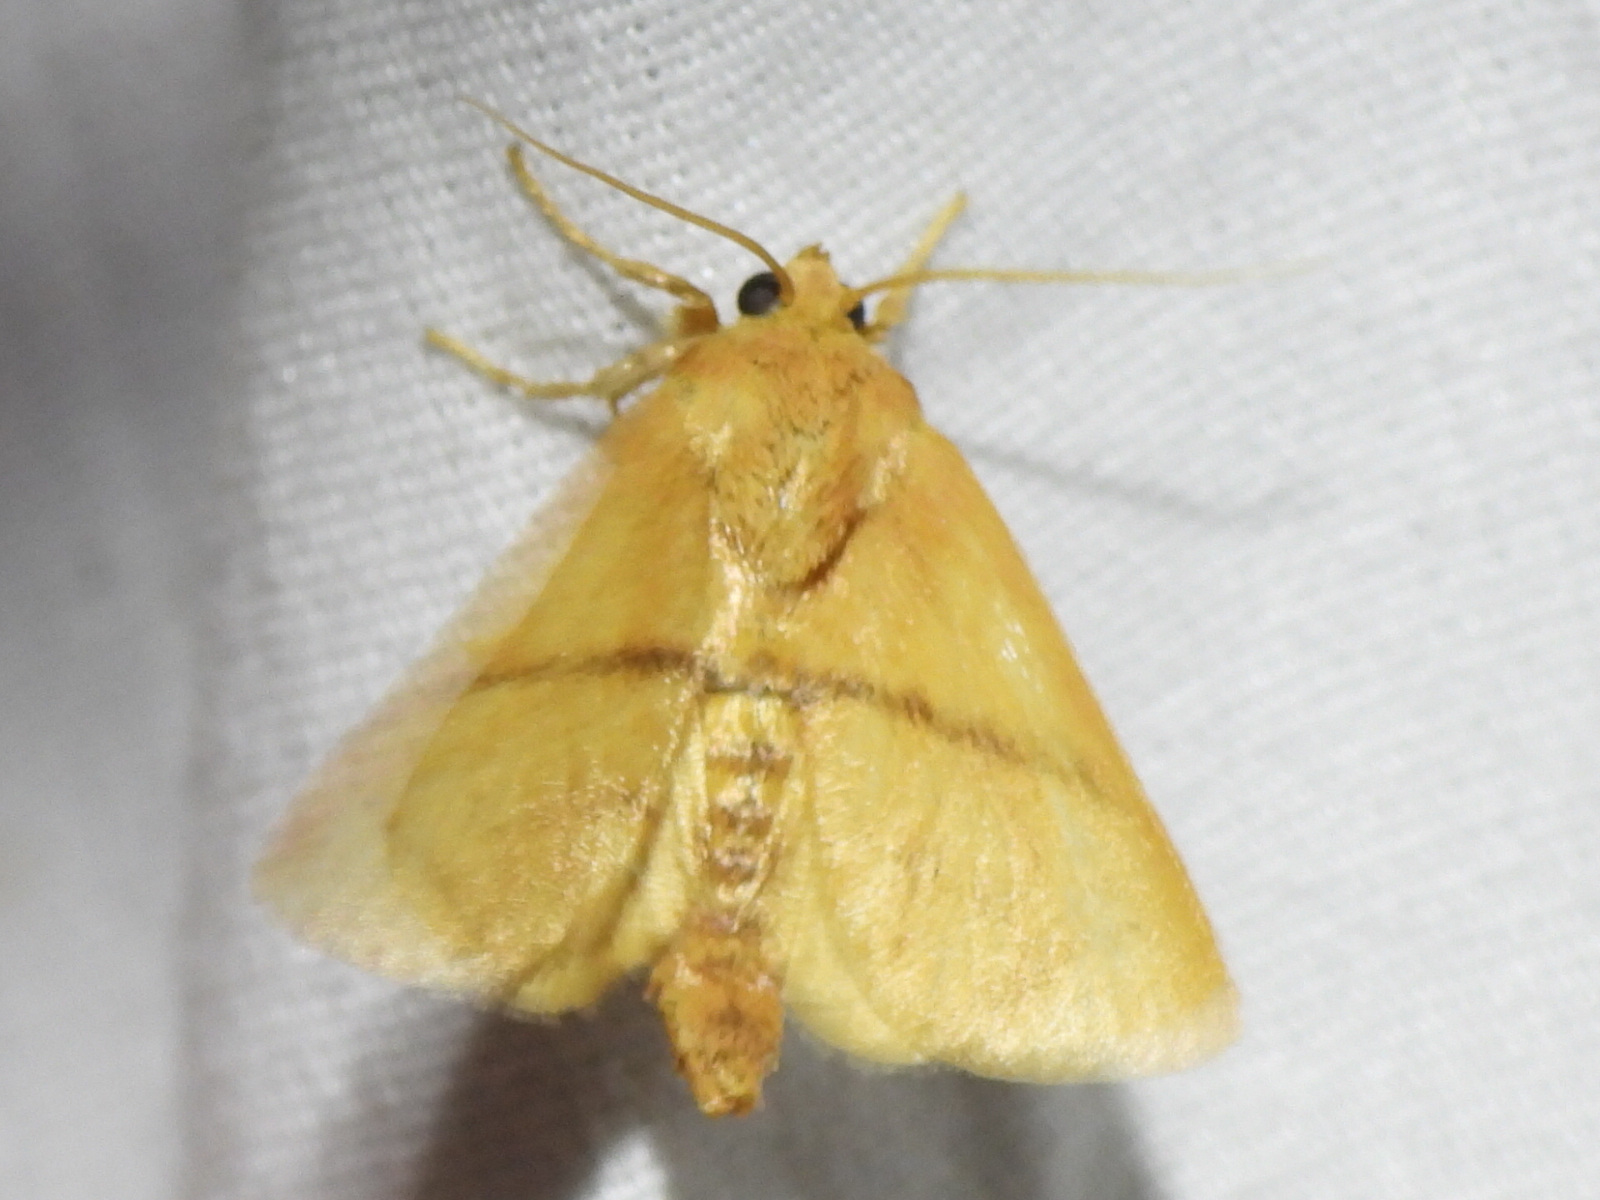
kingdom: Animalia
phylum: Arthropoda
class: Insecta
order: Lepidoptera
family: Limacodidae
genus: Apoda
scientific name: Apoda y-inversa
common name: Yellow-collared slug moth
